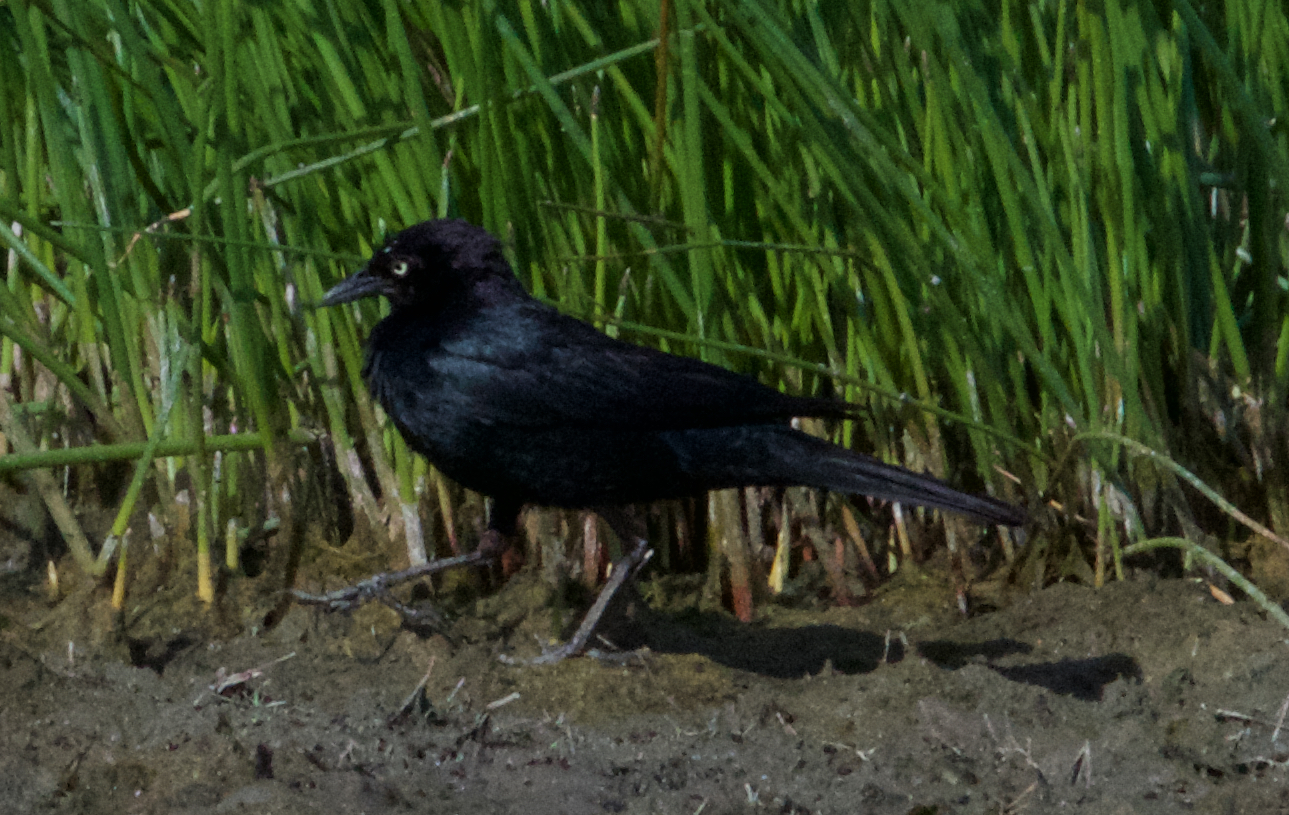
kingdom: Animalia
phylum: Chordata
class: Aves
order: Passeriformes
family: Icteridae
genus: Euphagus
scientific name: Euphagus cyanocephalus
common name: Brewer's blackbird
